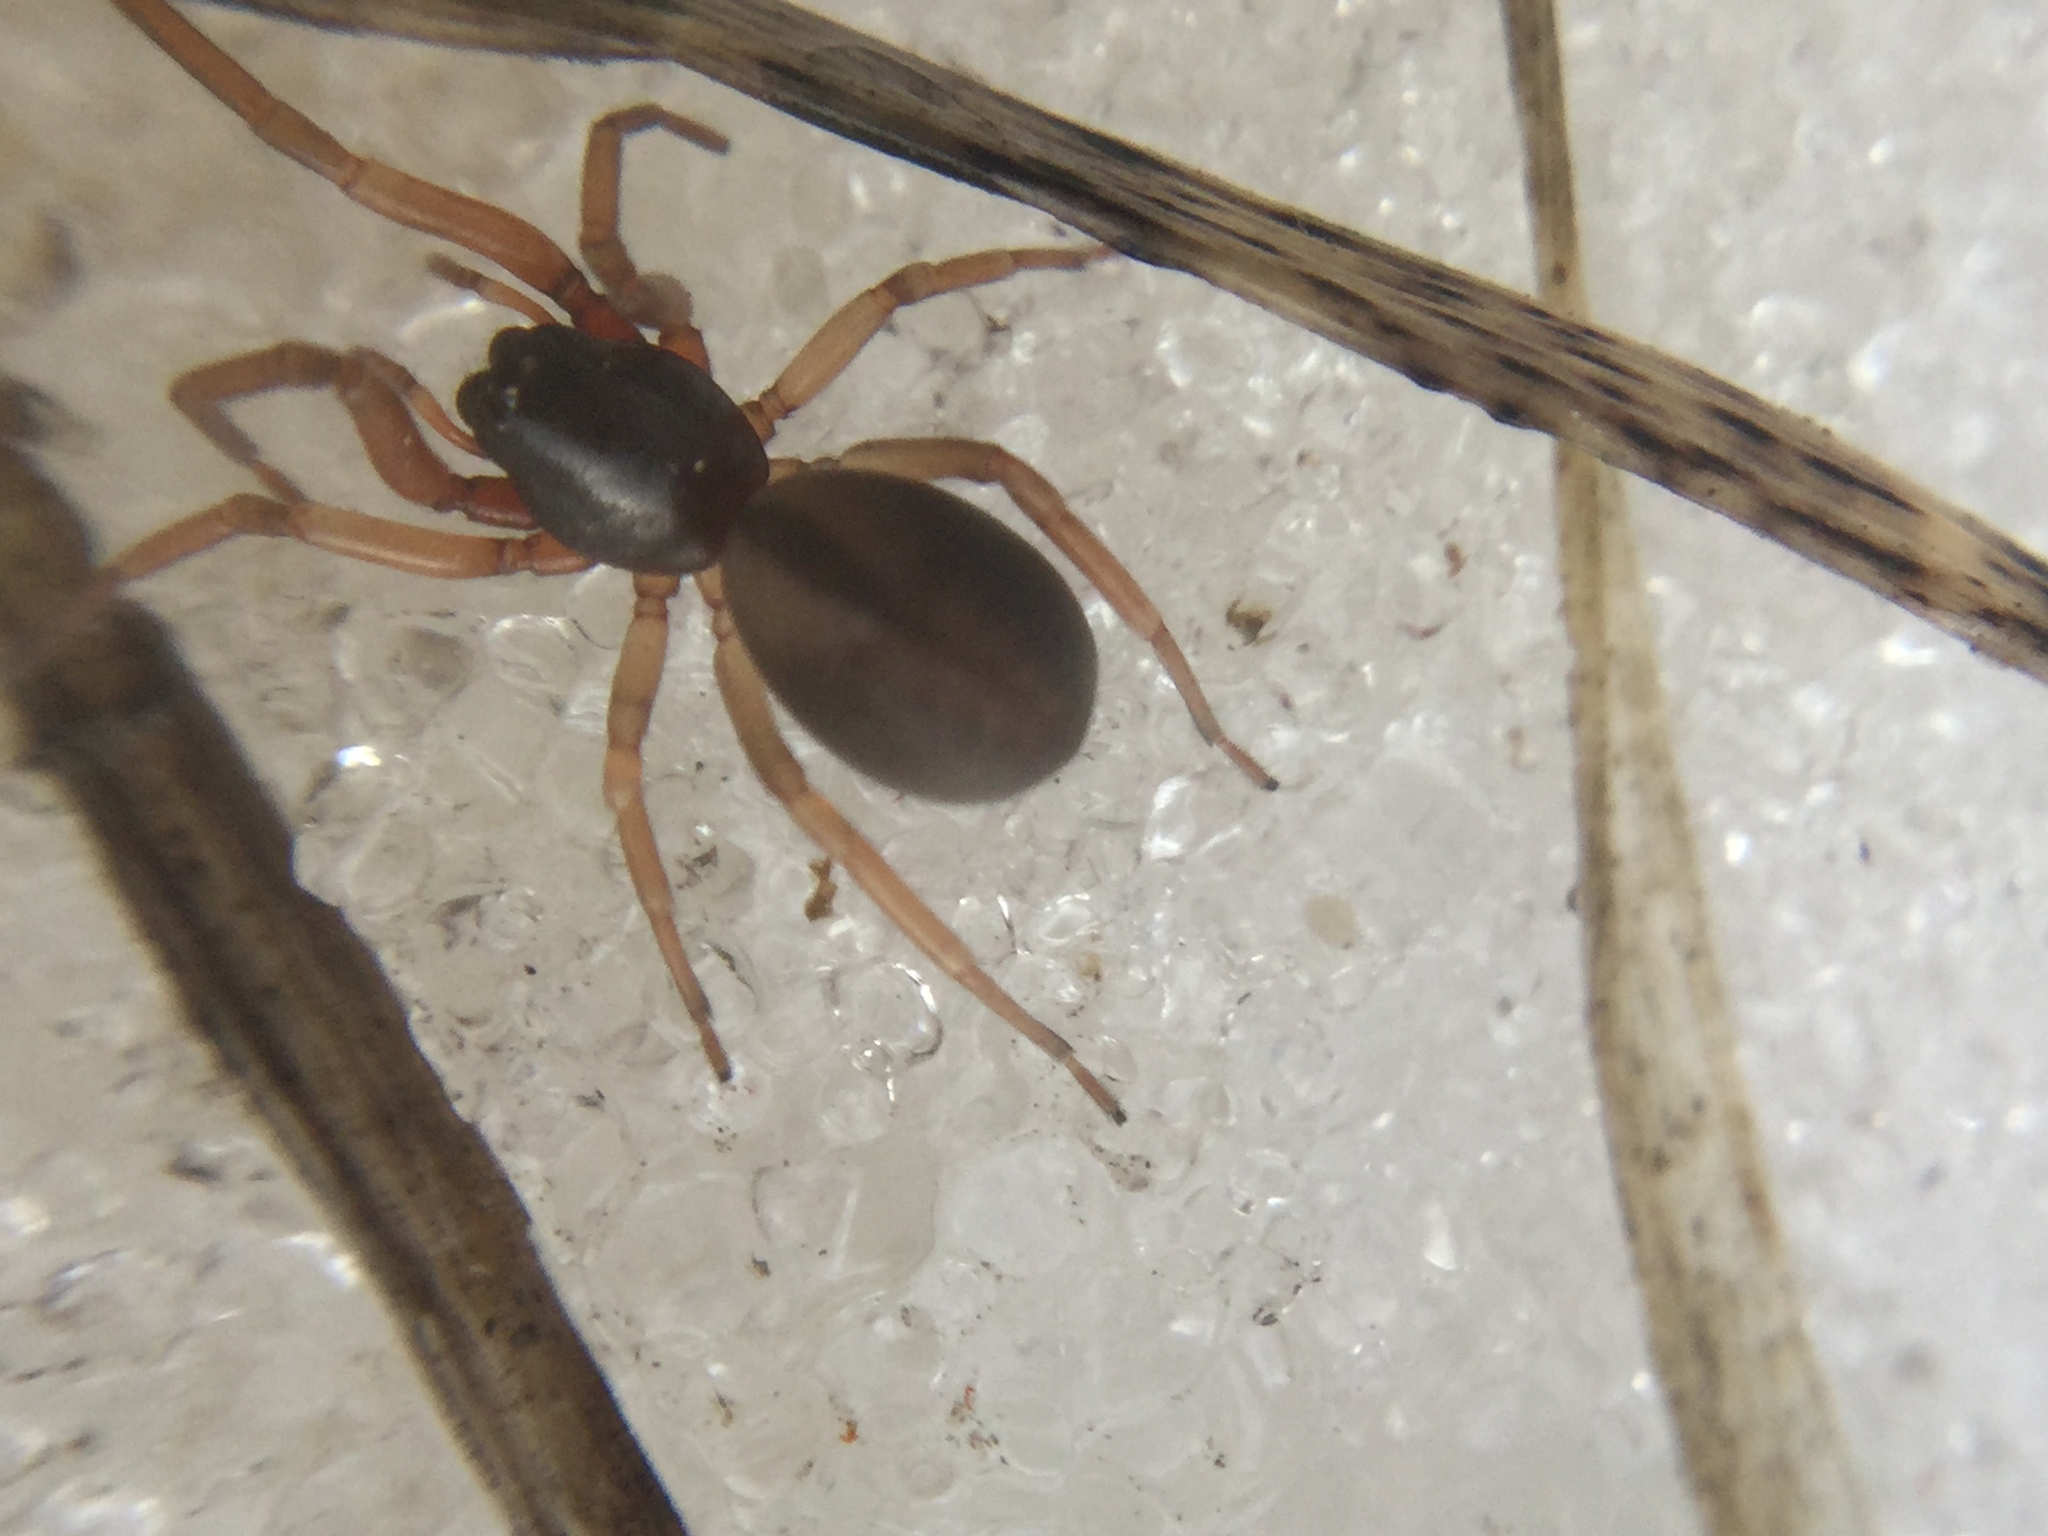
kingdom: Animalia
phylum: Arthropoda
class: Arachnida
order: Araneae
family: Trachelidae
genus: Meriola
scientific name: Meriola decepta
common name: Corinnid sac spiders
